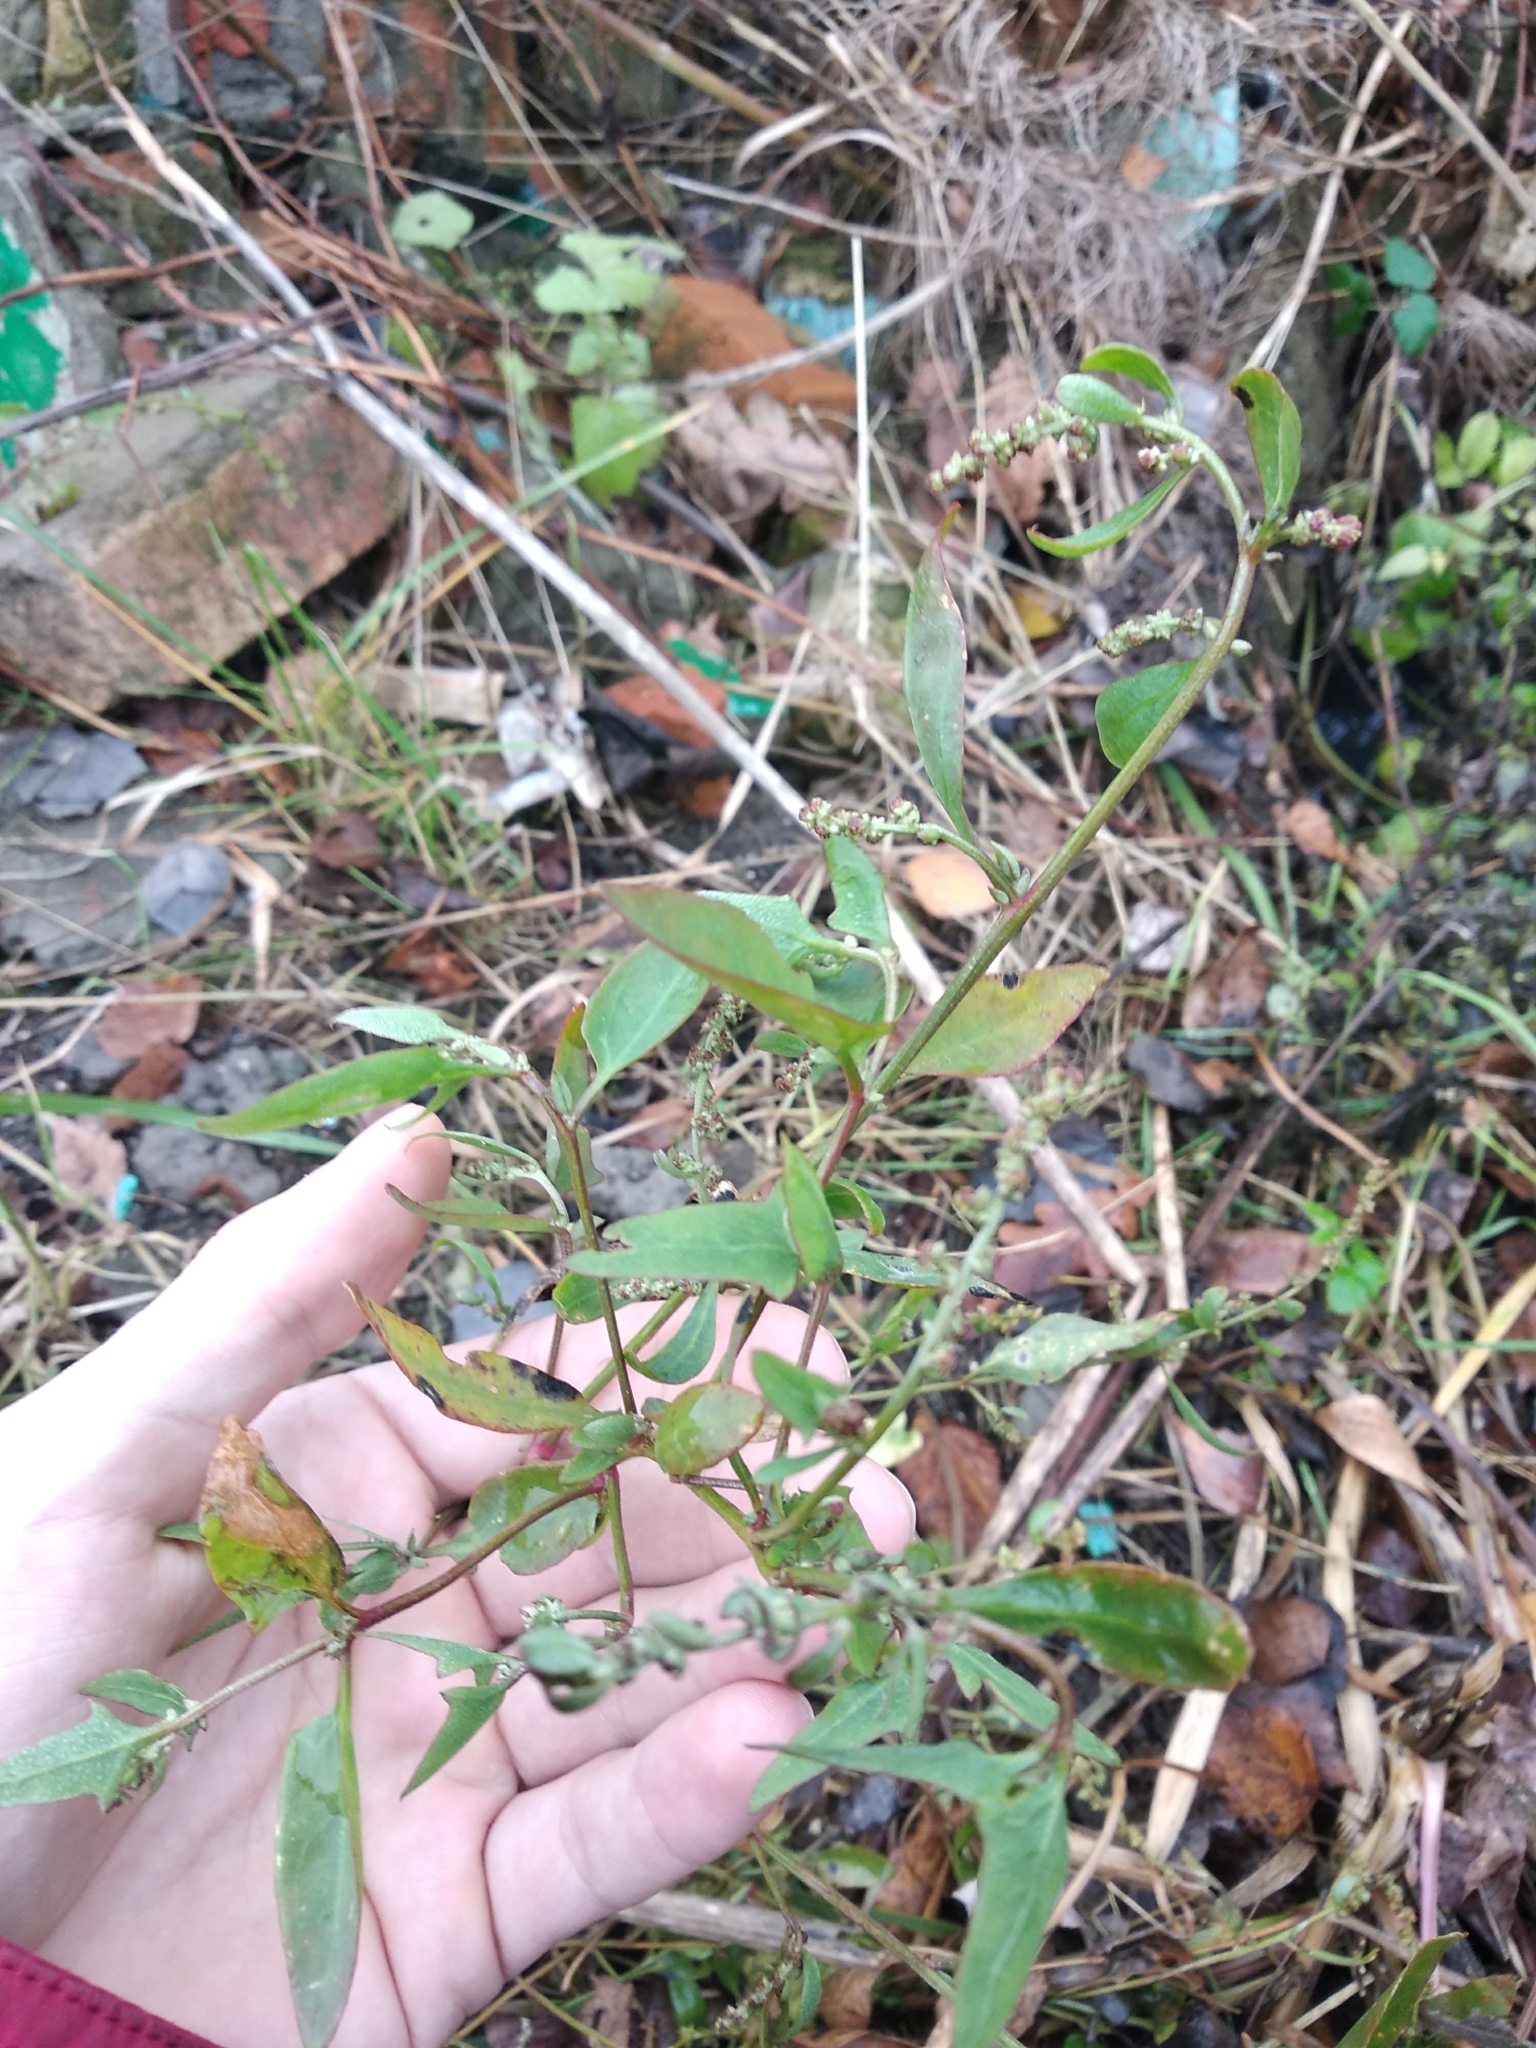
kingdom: Plantae
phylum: Tracheophyta
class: Magnoliopsida
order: Caryophyllales
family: Amaranthaceae
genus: Chenopodium
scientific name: Chenopodium album
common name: Fat-hen
